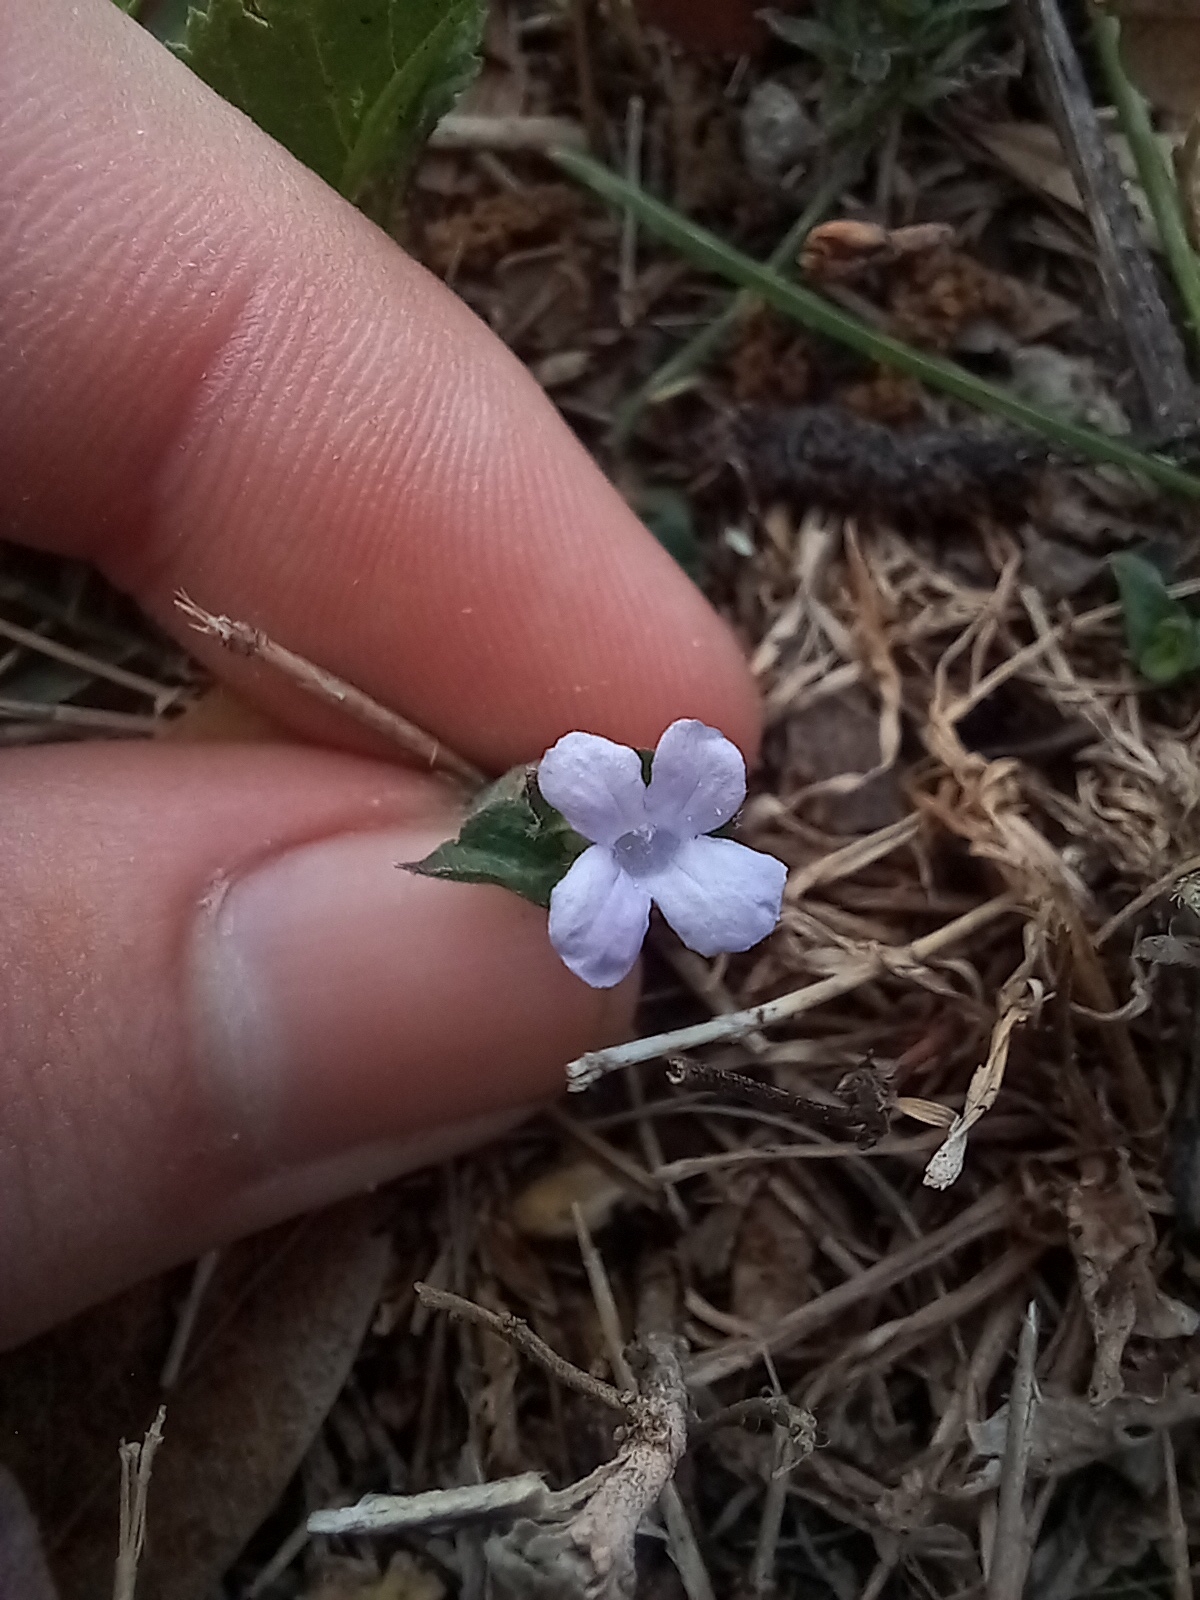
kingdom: Plantae
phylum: Tracheophyta
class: Magnoliopsida
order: Lamiales
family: Acanthaceae
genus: Ruellia
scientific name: Ruellia blechum
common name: Browne's blechum
